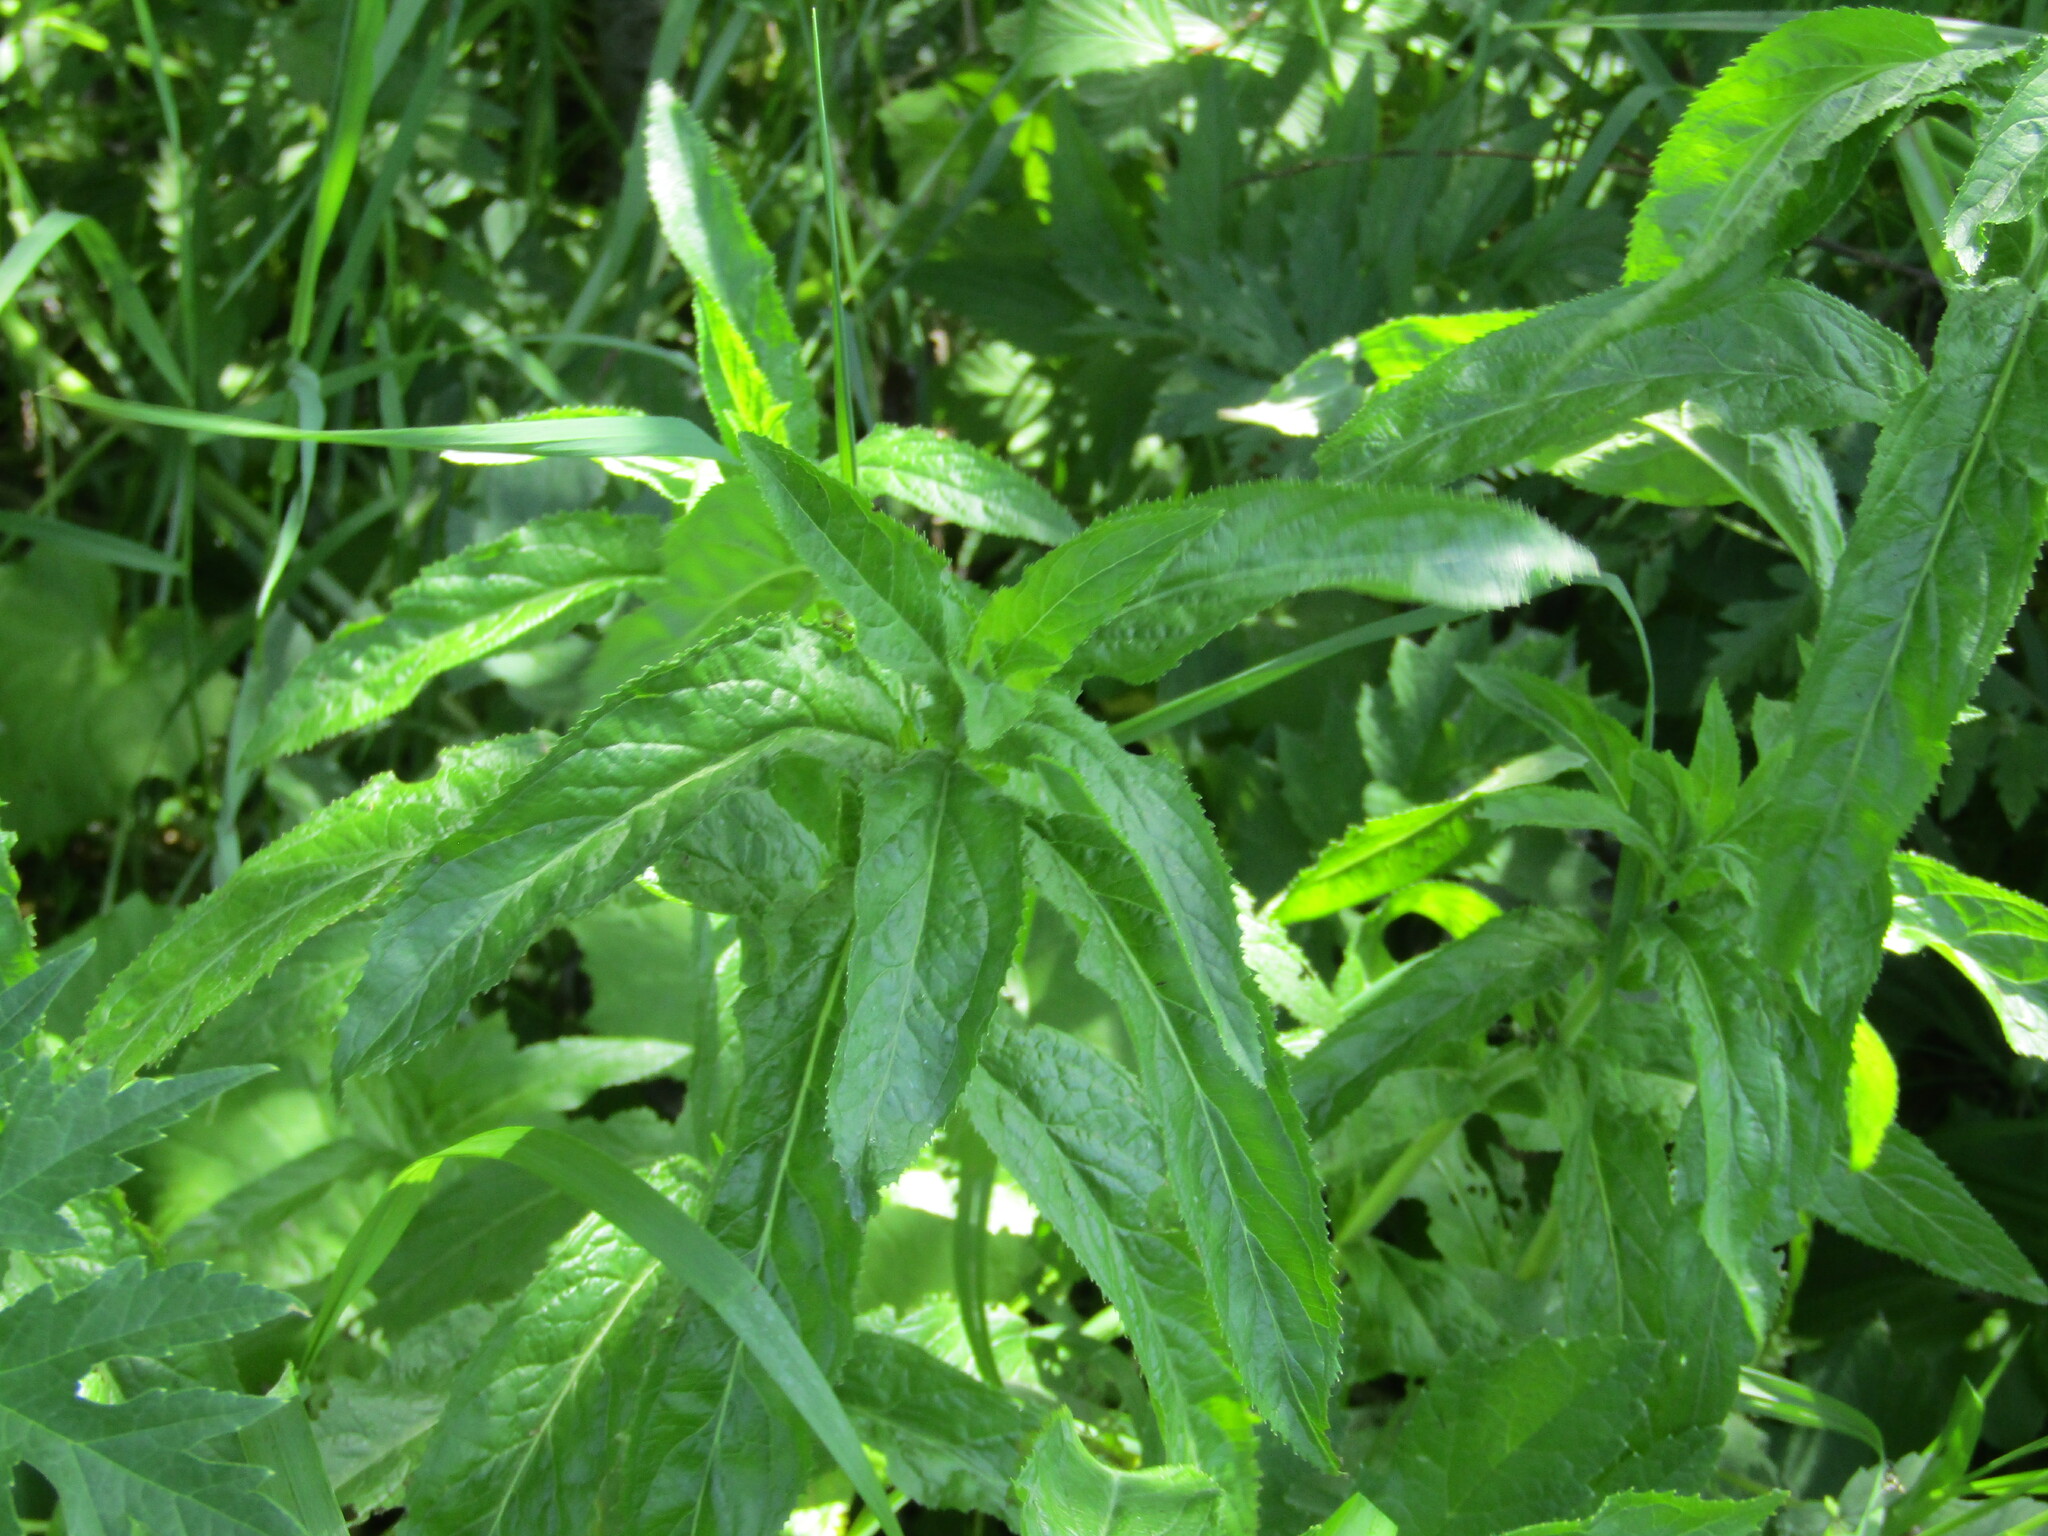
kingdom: Plantae
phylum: Tracheophyta
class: Magnoliopsida
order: Lamiales
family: Plantaginaceae
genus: Veronica
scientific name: Veronica longifolia
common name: Garden speedwell
